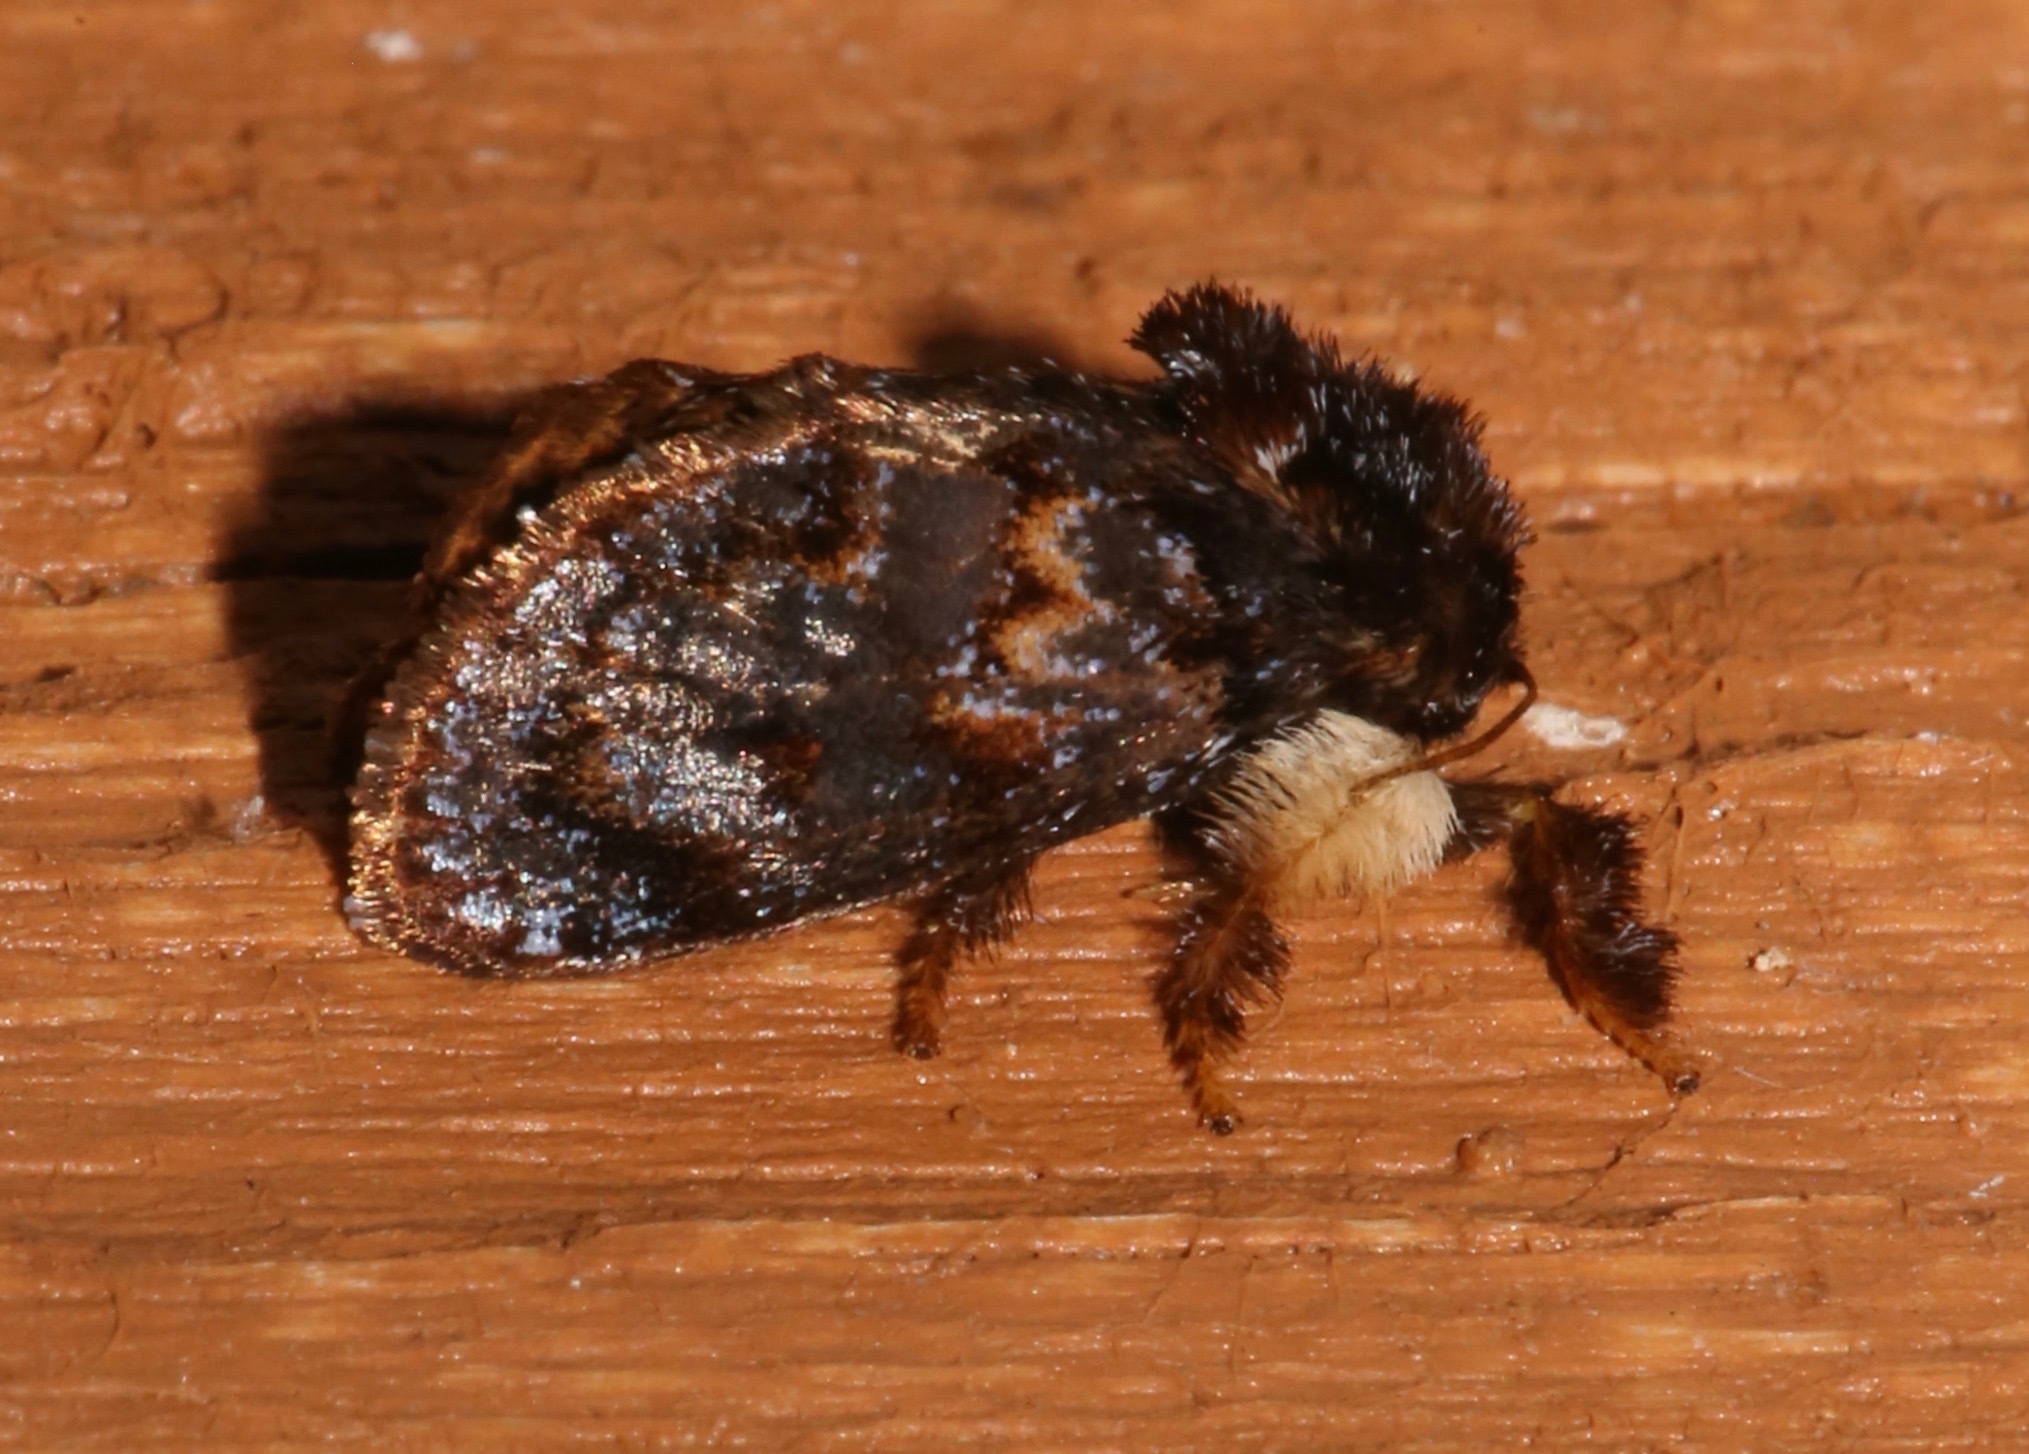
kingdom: Animalia
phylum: Arthropoda
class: Insecta
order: Lepidoptera
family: Limacodidae
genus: Phobetron
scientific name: Phobetron pithecium
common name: Hag moth
